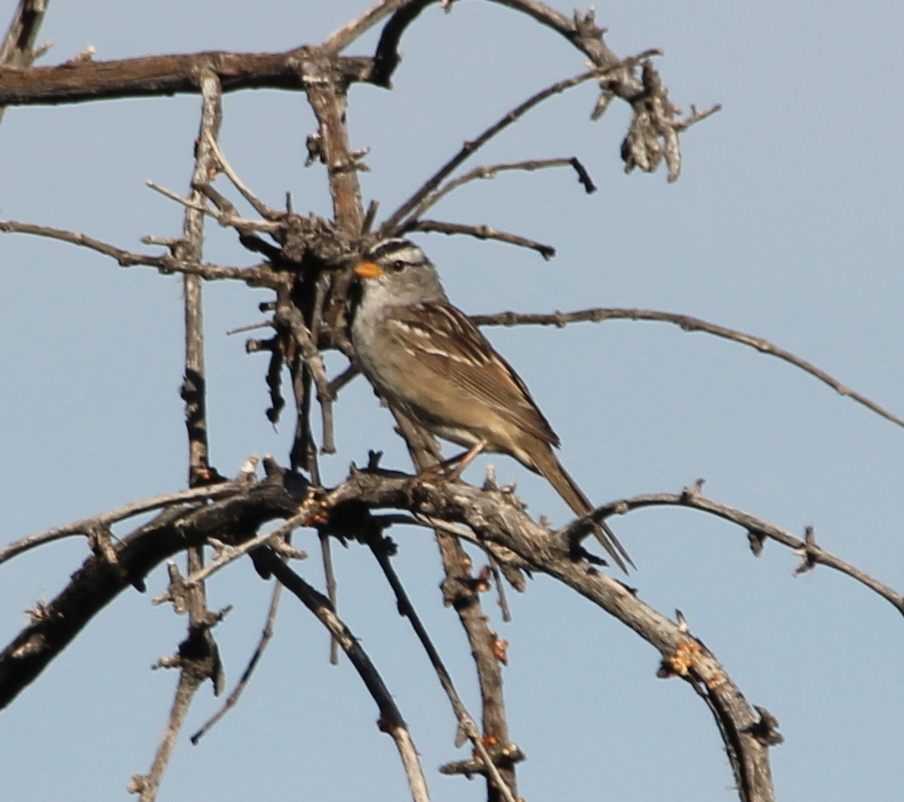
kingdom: Animalia
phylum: Chordata
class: Aves
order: Passeriformes
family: Passerellidae
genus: Zonotrichia
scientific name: Zonotrichia leucophrys
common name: White-crowned sparrow
